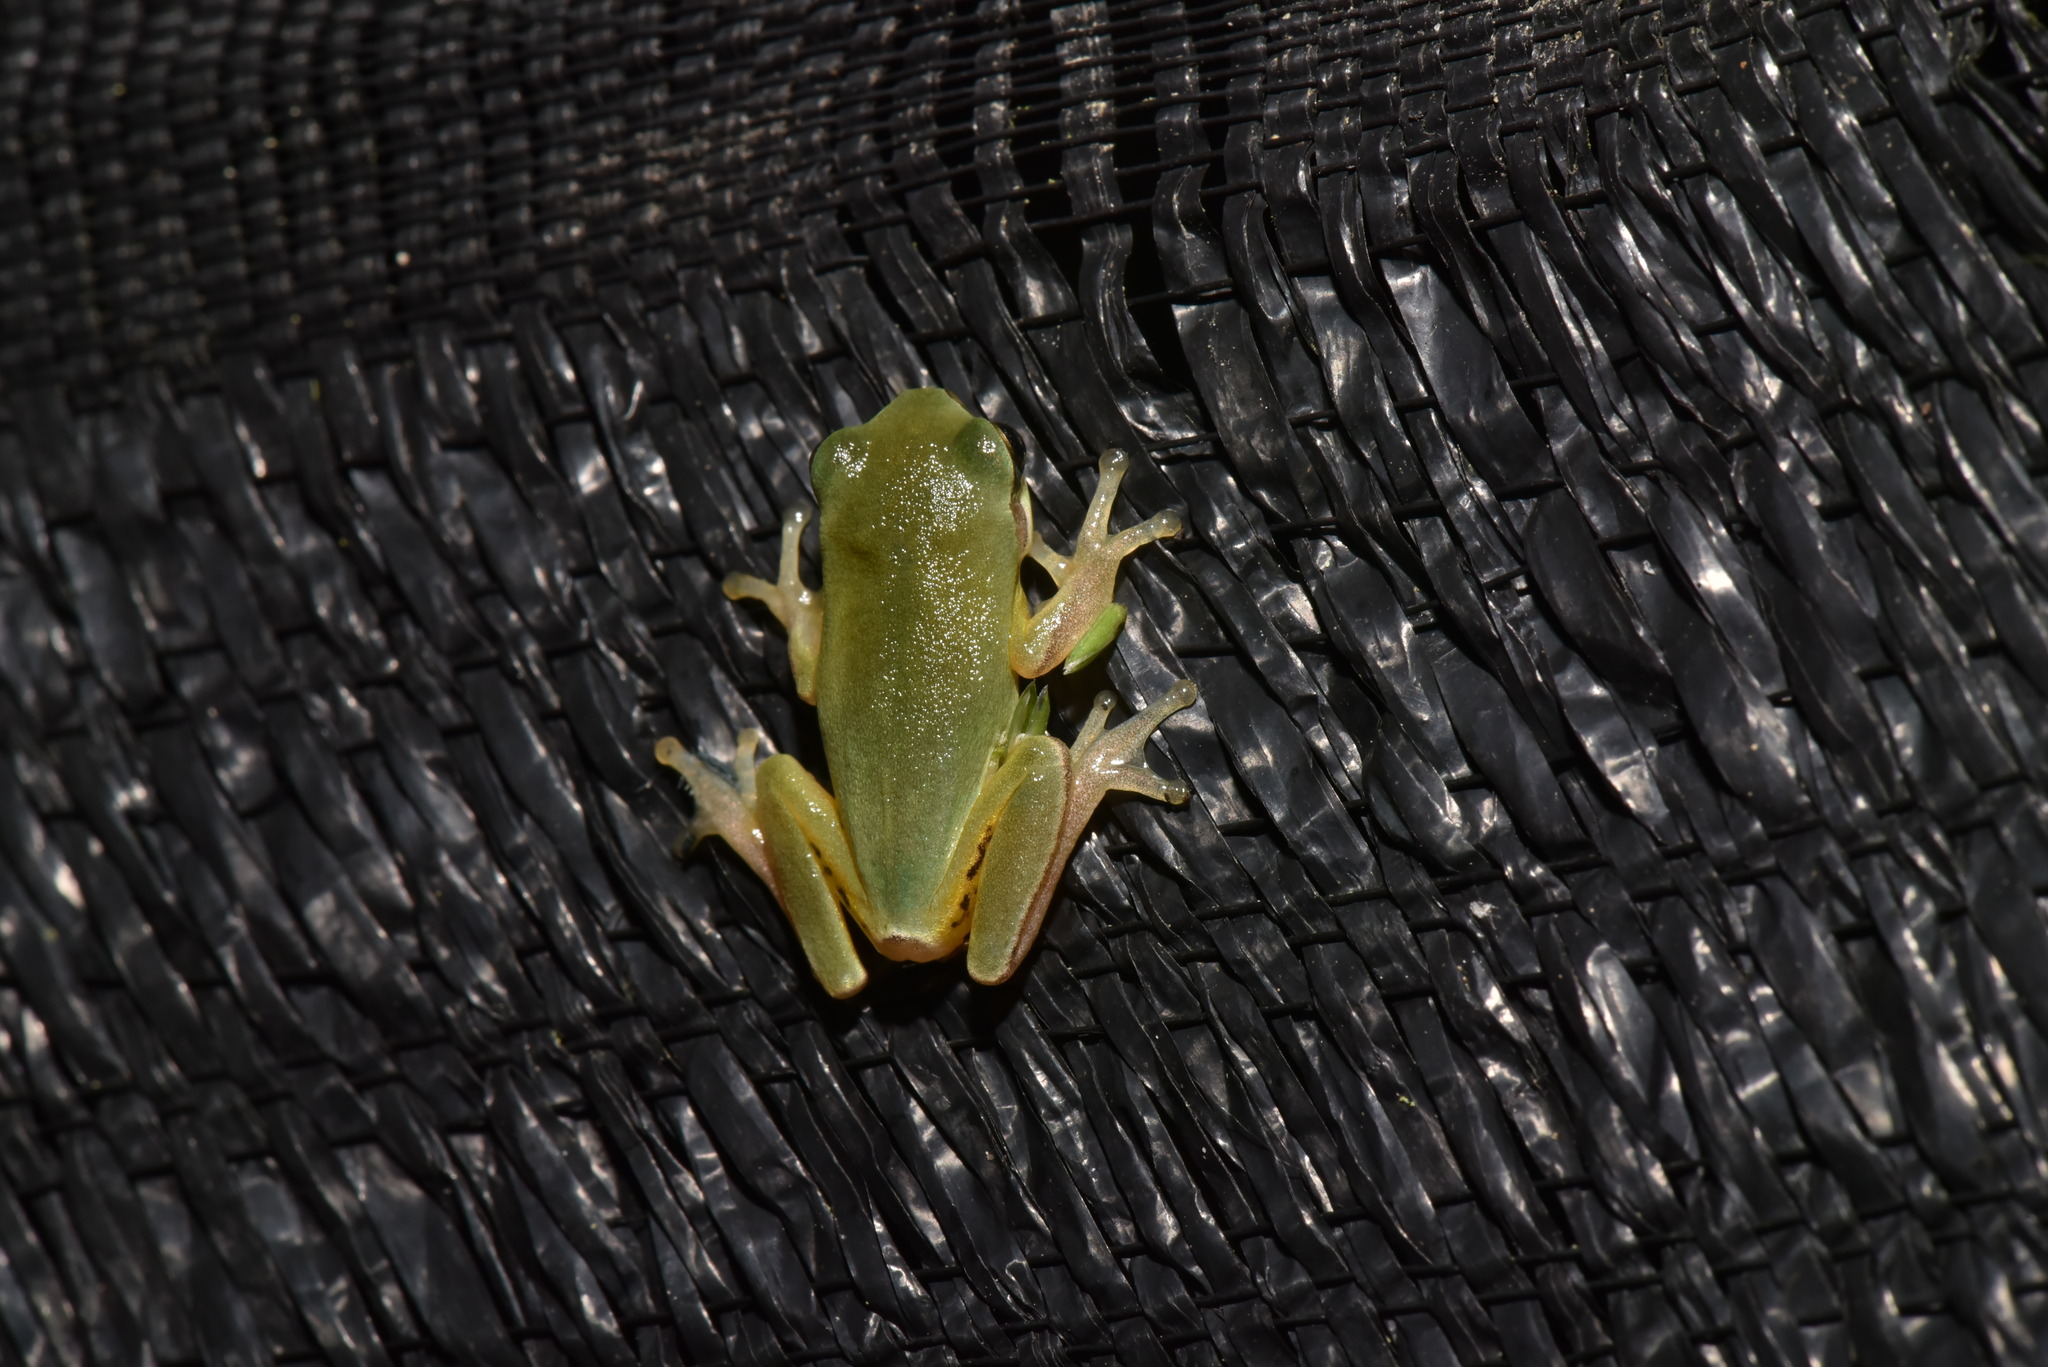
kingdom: Animalia
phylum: Chordata
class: Amphibia
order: Anura
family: Hylidae
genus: Hyla
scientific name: Hyla chinensis
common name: Common chinese treefrog
